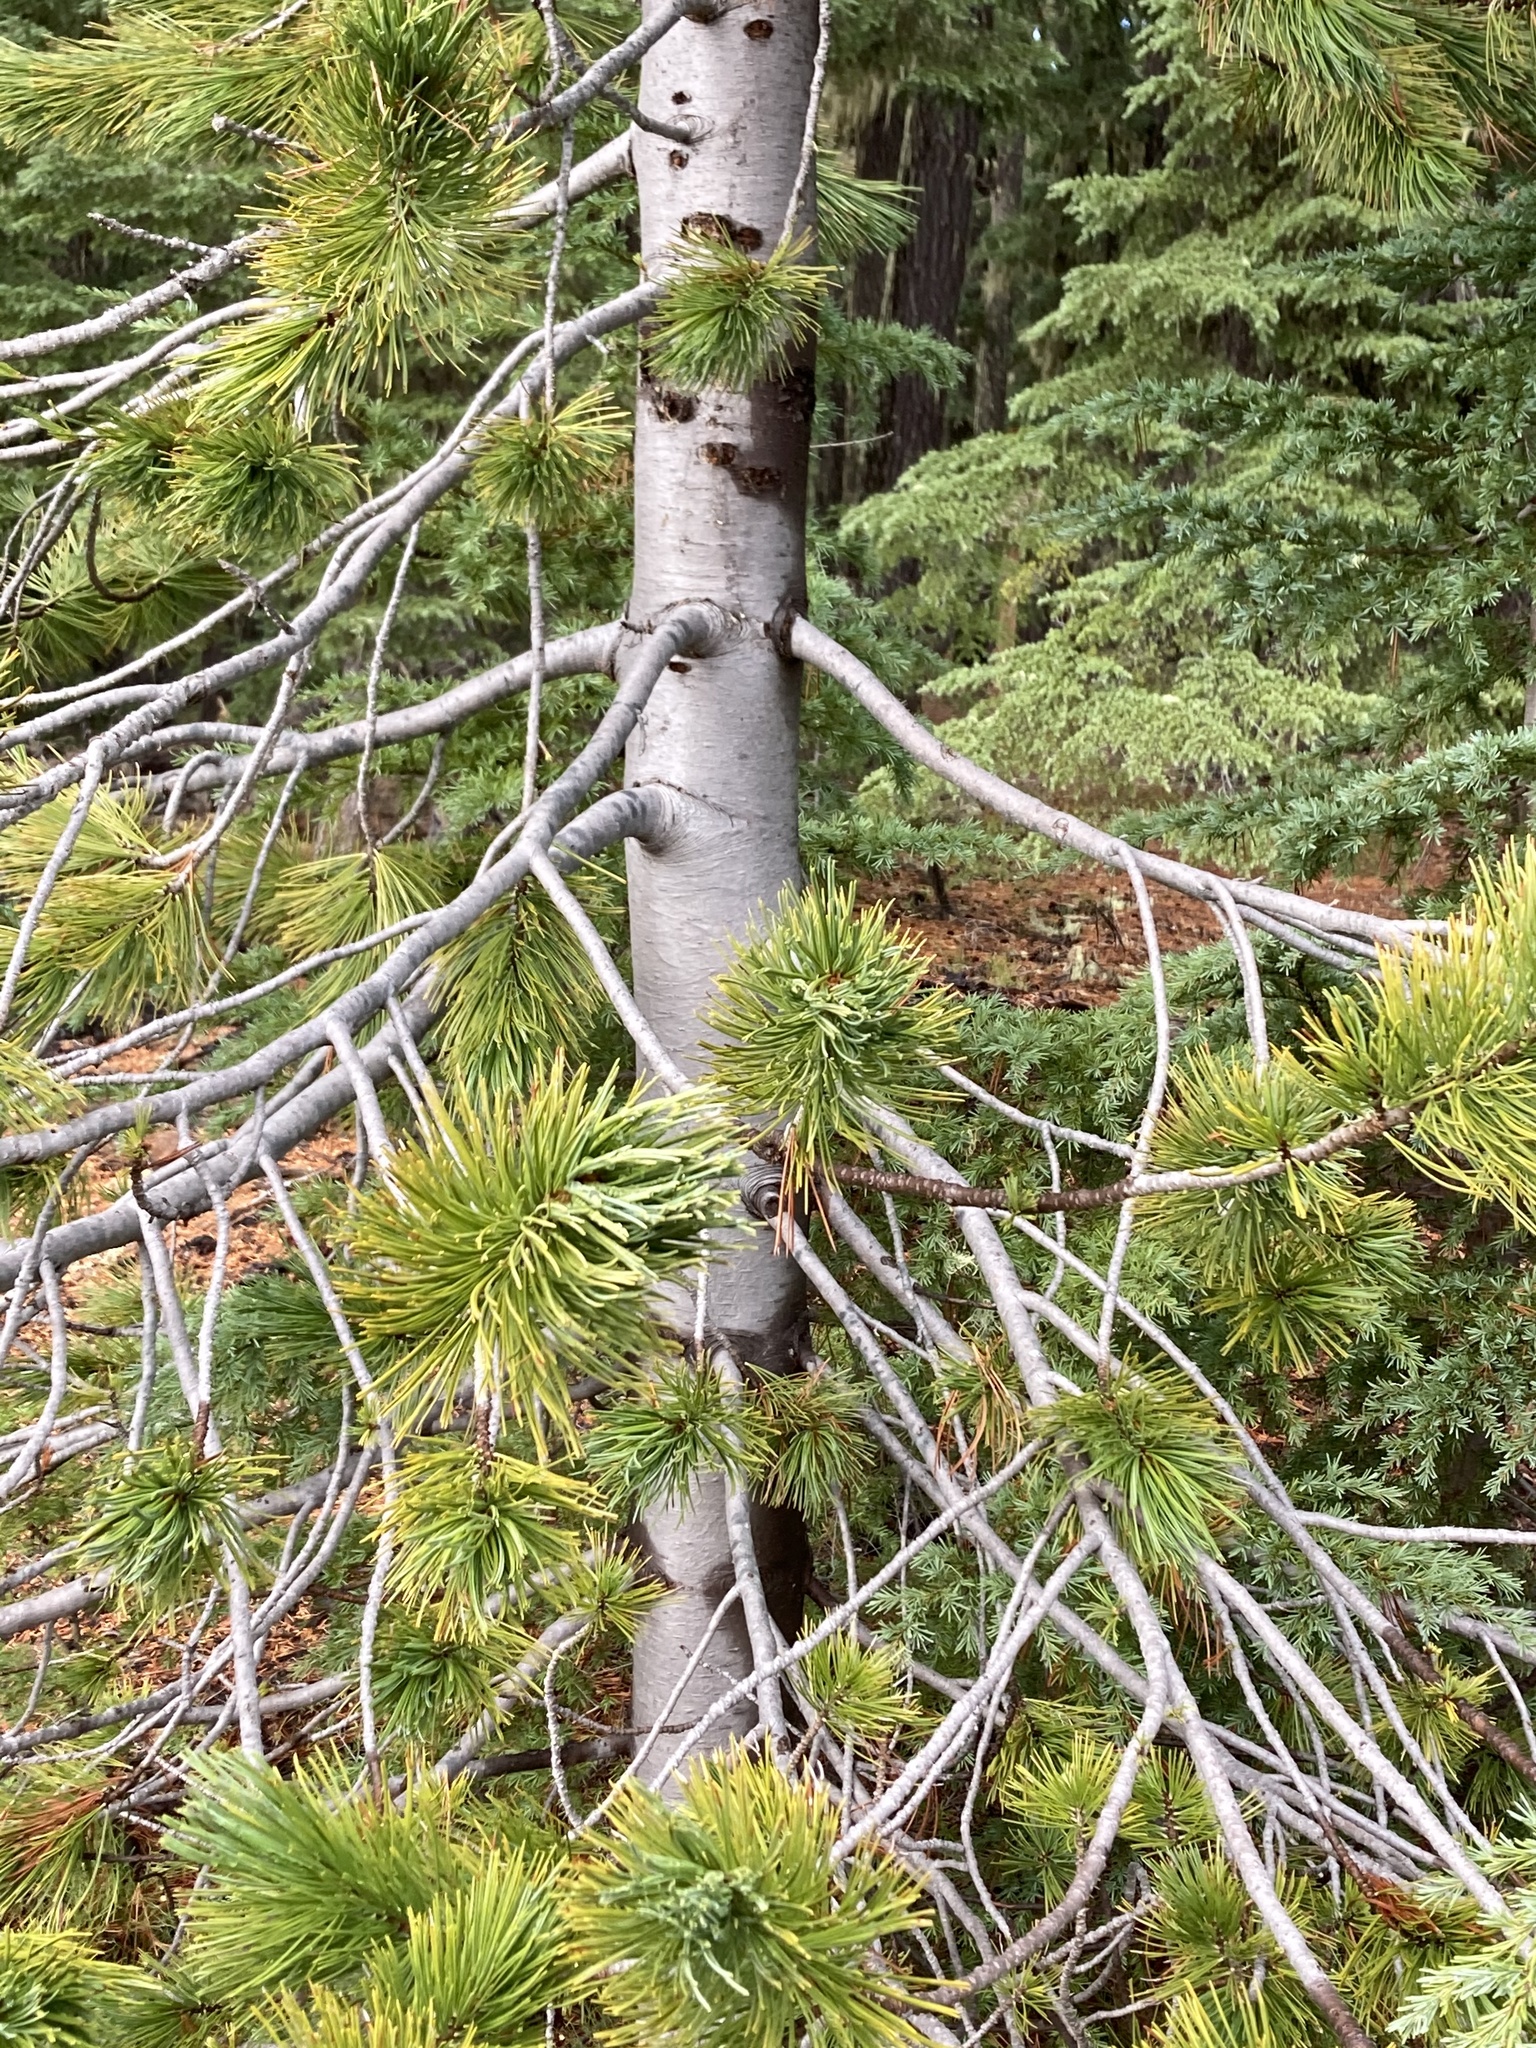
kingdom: Plantae
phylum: Tracheophyta
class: Pinopsida
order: Pinales
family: Pinaceae
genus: Pinus
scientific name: Pinus albicaulis
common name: Whitebark pine
